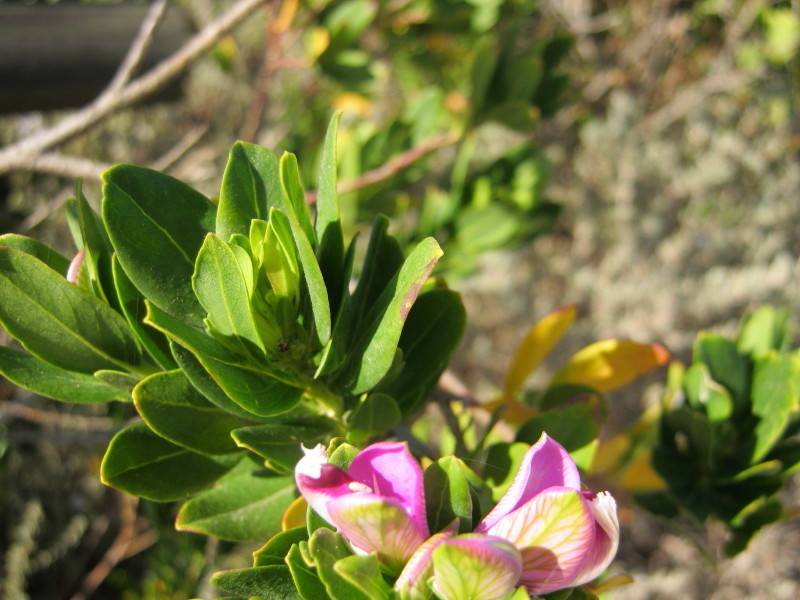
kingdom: Plantae
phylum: Tracheophyta
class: Magnoliopsida
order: Fabales
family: Polygalaceae
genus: Polygala
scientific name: Polygala myrtifolia
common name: Myrtle-leaf milkwort
